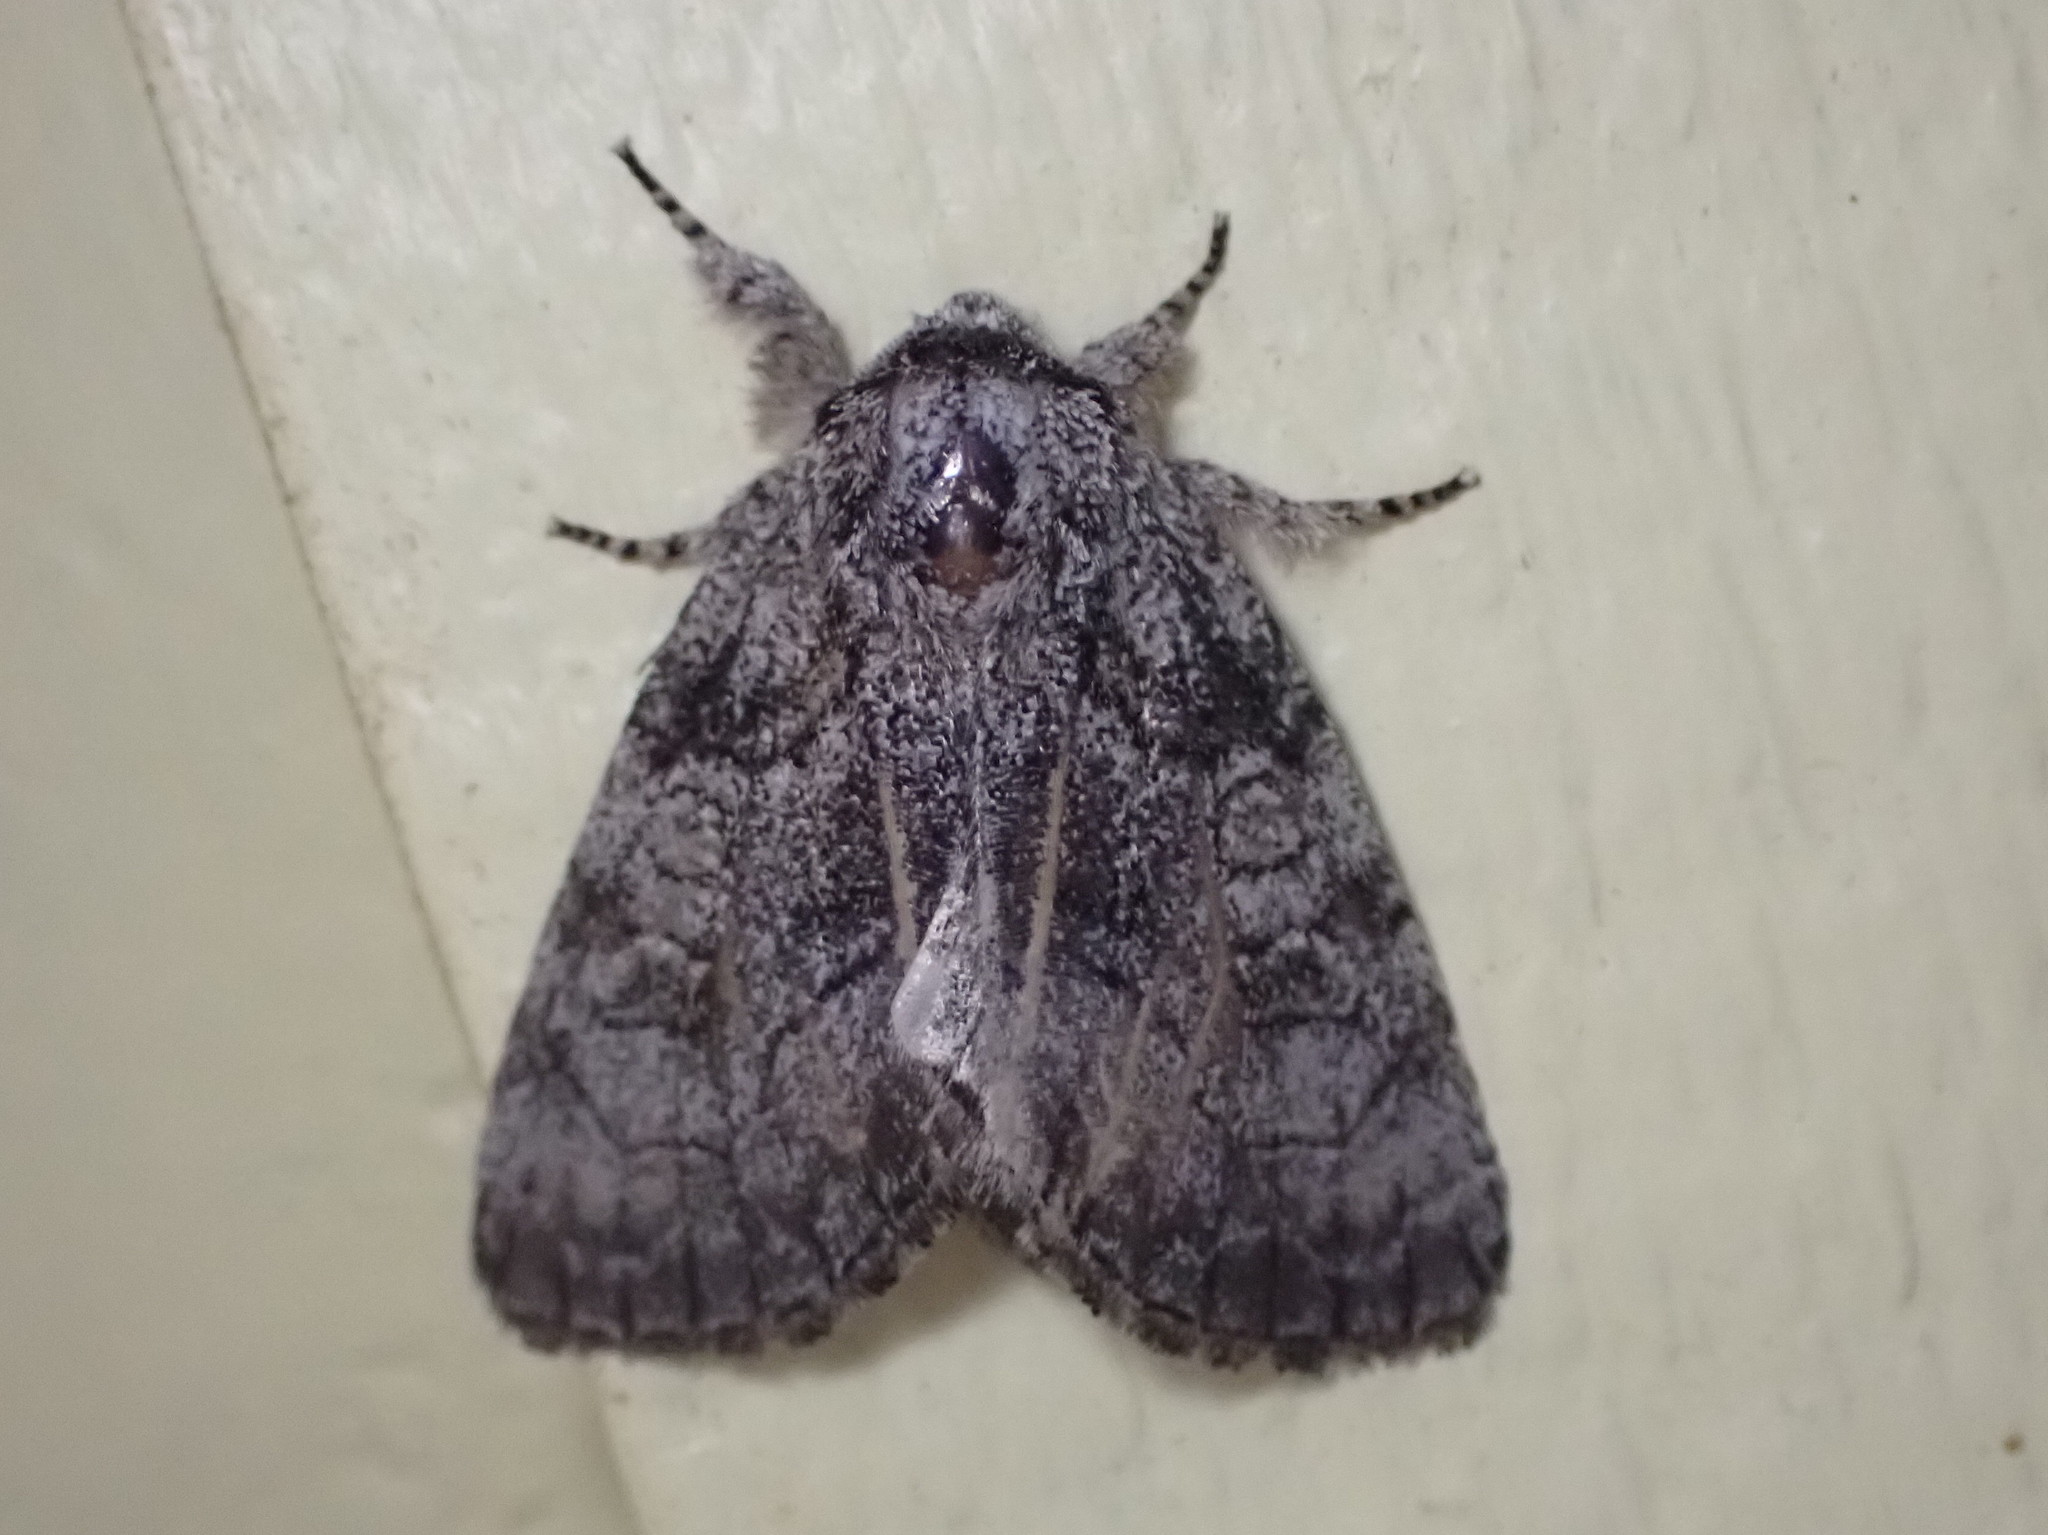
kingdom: Animalia
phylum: Arthropoda
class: Insecta
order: Lepidoptera
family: Noctuidae
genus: Raphia
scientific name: Raphia frater
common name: Brother
